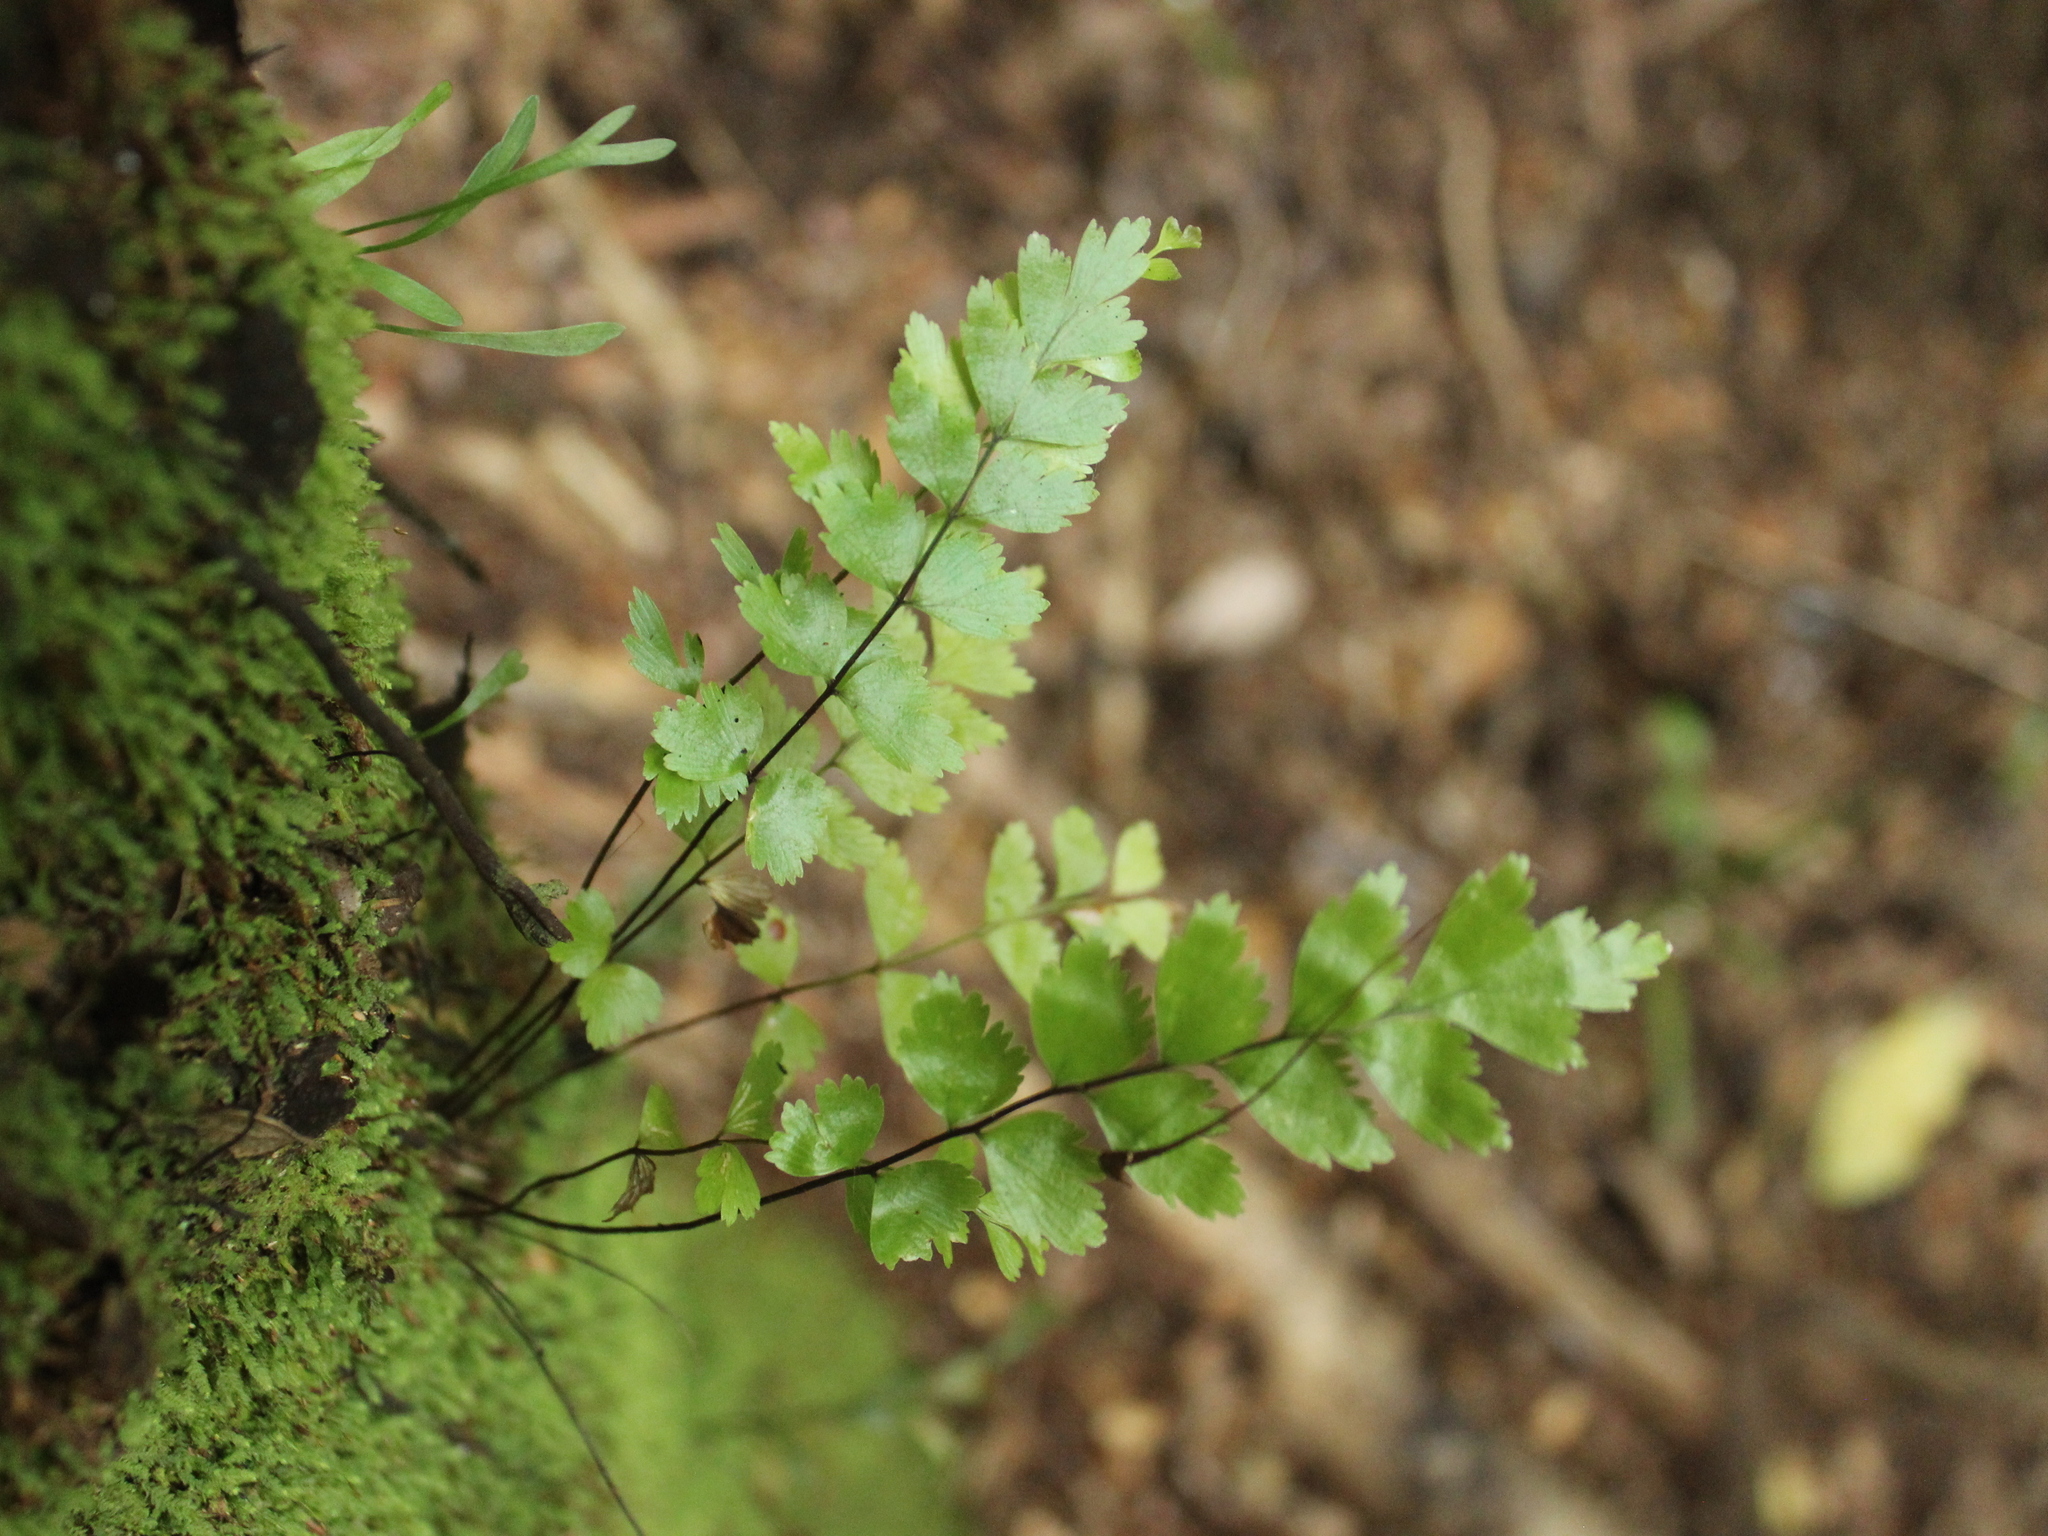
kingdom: Plantae
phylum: Tracheophyta
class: Polypodiopsida
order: Polypodiales
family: Aspleniaceae
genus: Asplenium
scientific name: Asplenium polyodon
